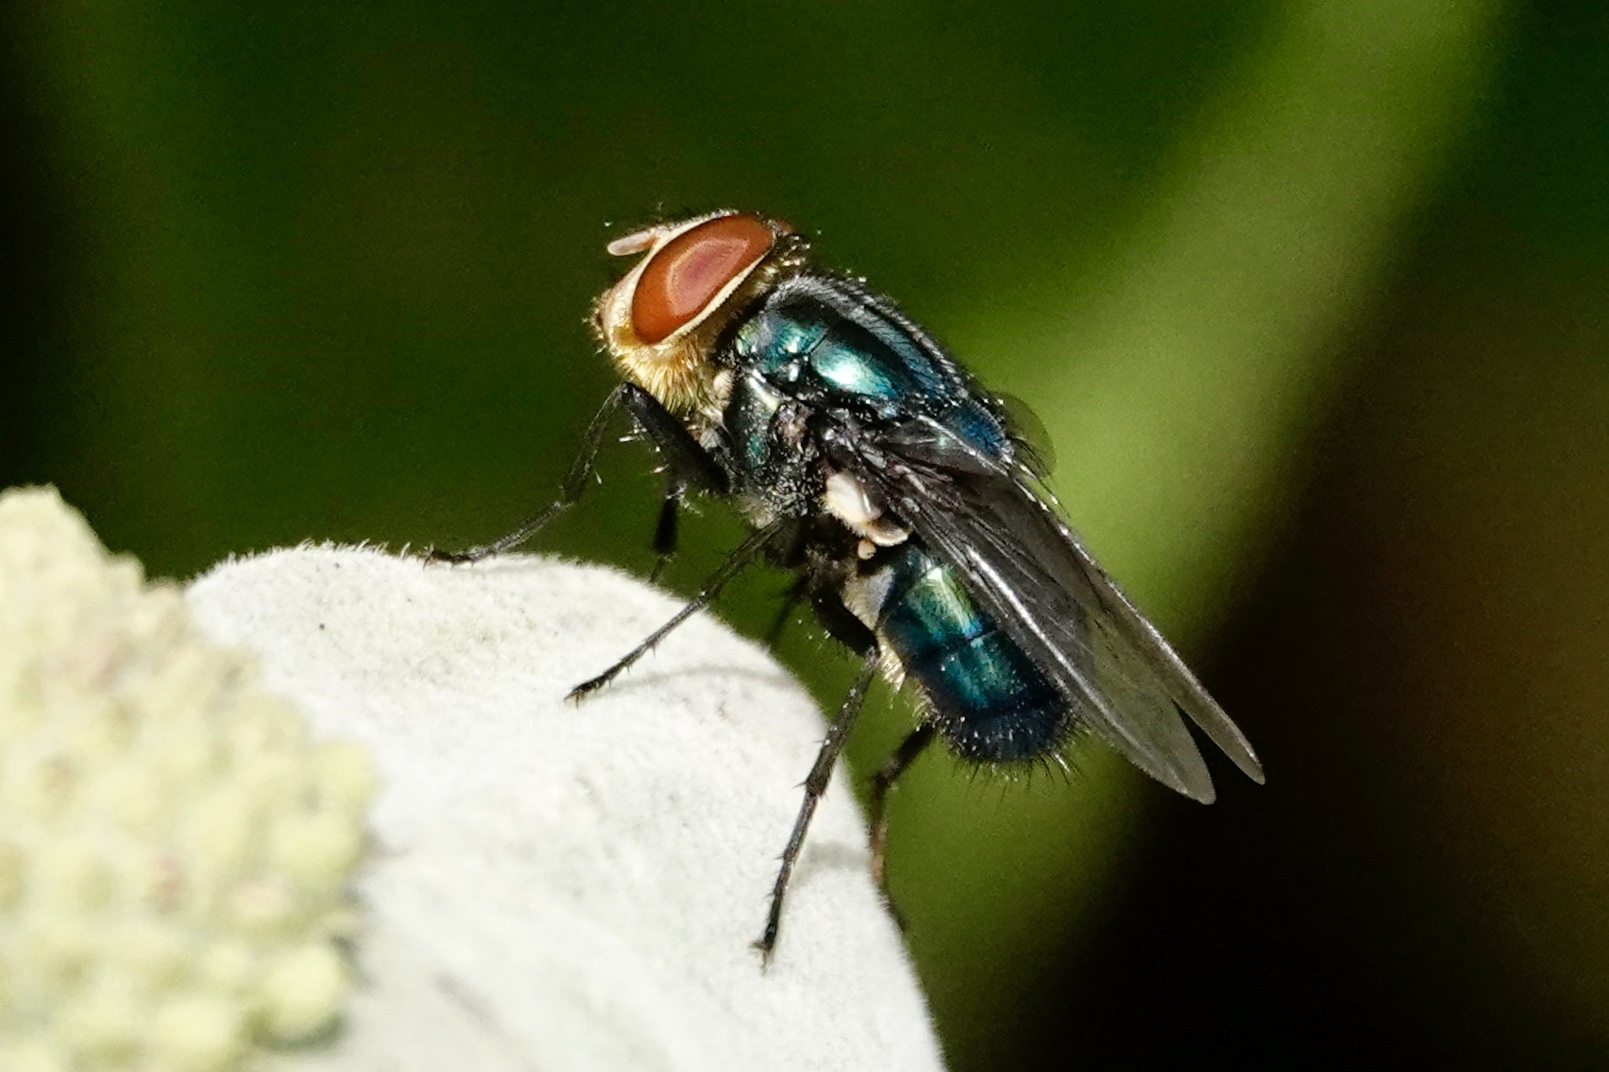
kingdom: Animalia
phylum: Arthropoda
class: Insecta
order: Diptera
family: Calliphoridae
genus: Cochliomyia
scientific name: Cochliomyia macellaria
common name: Secondary screwworm
